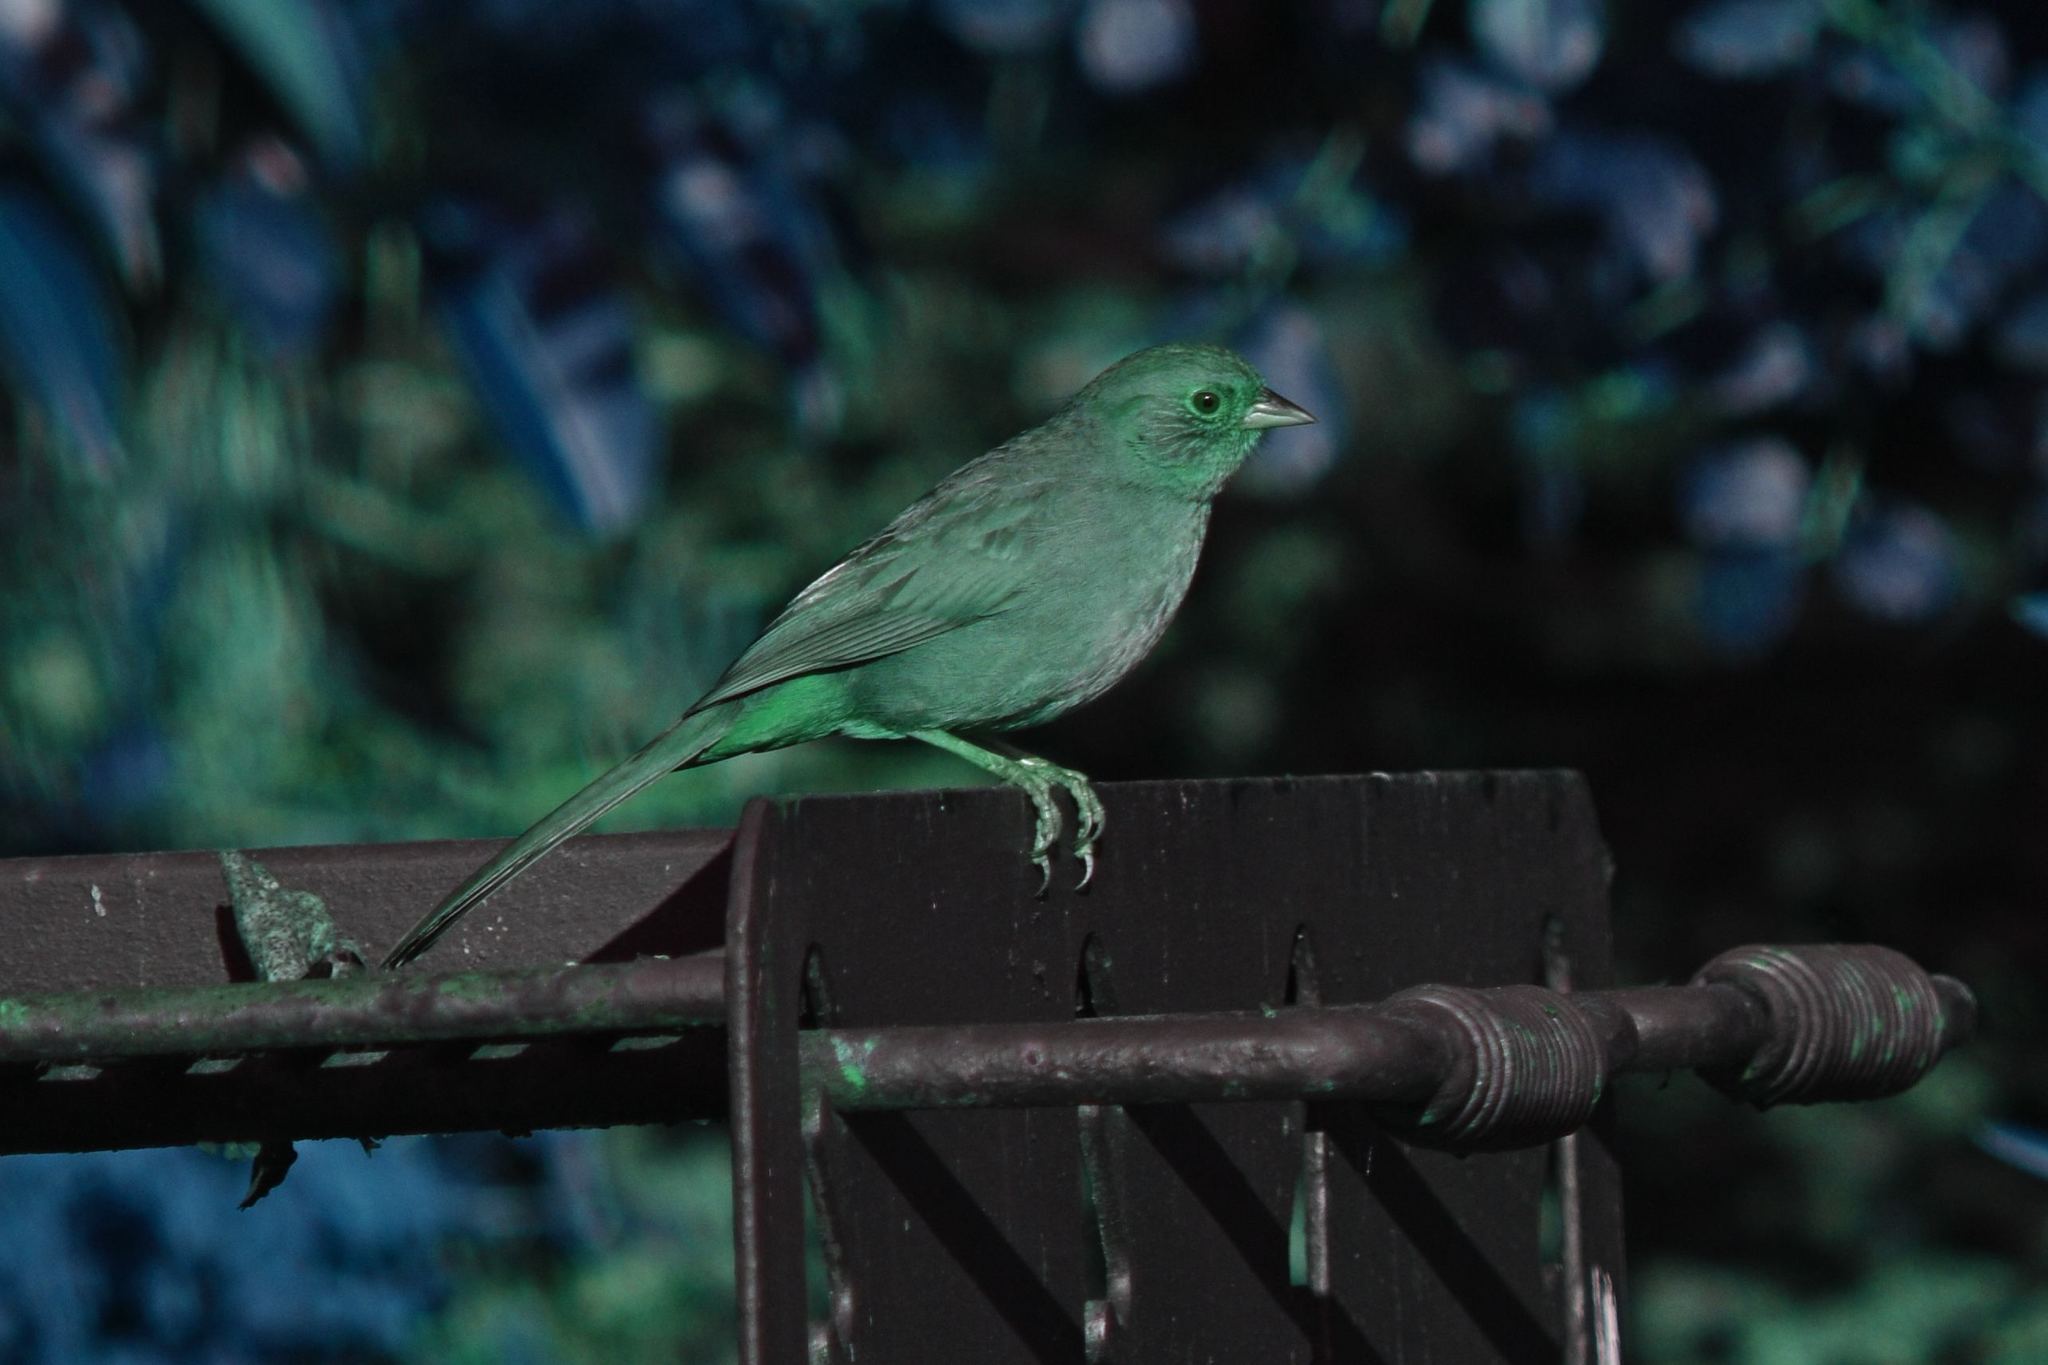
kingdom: Animalia
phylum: Chordata
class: Aves
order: Passeriformes
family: Passerellidae
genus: Melozone
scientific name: Melozone crissalis
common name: California towhee
